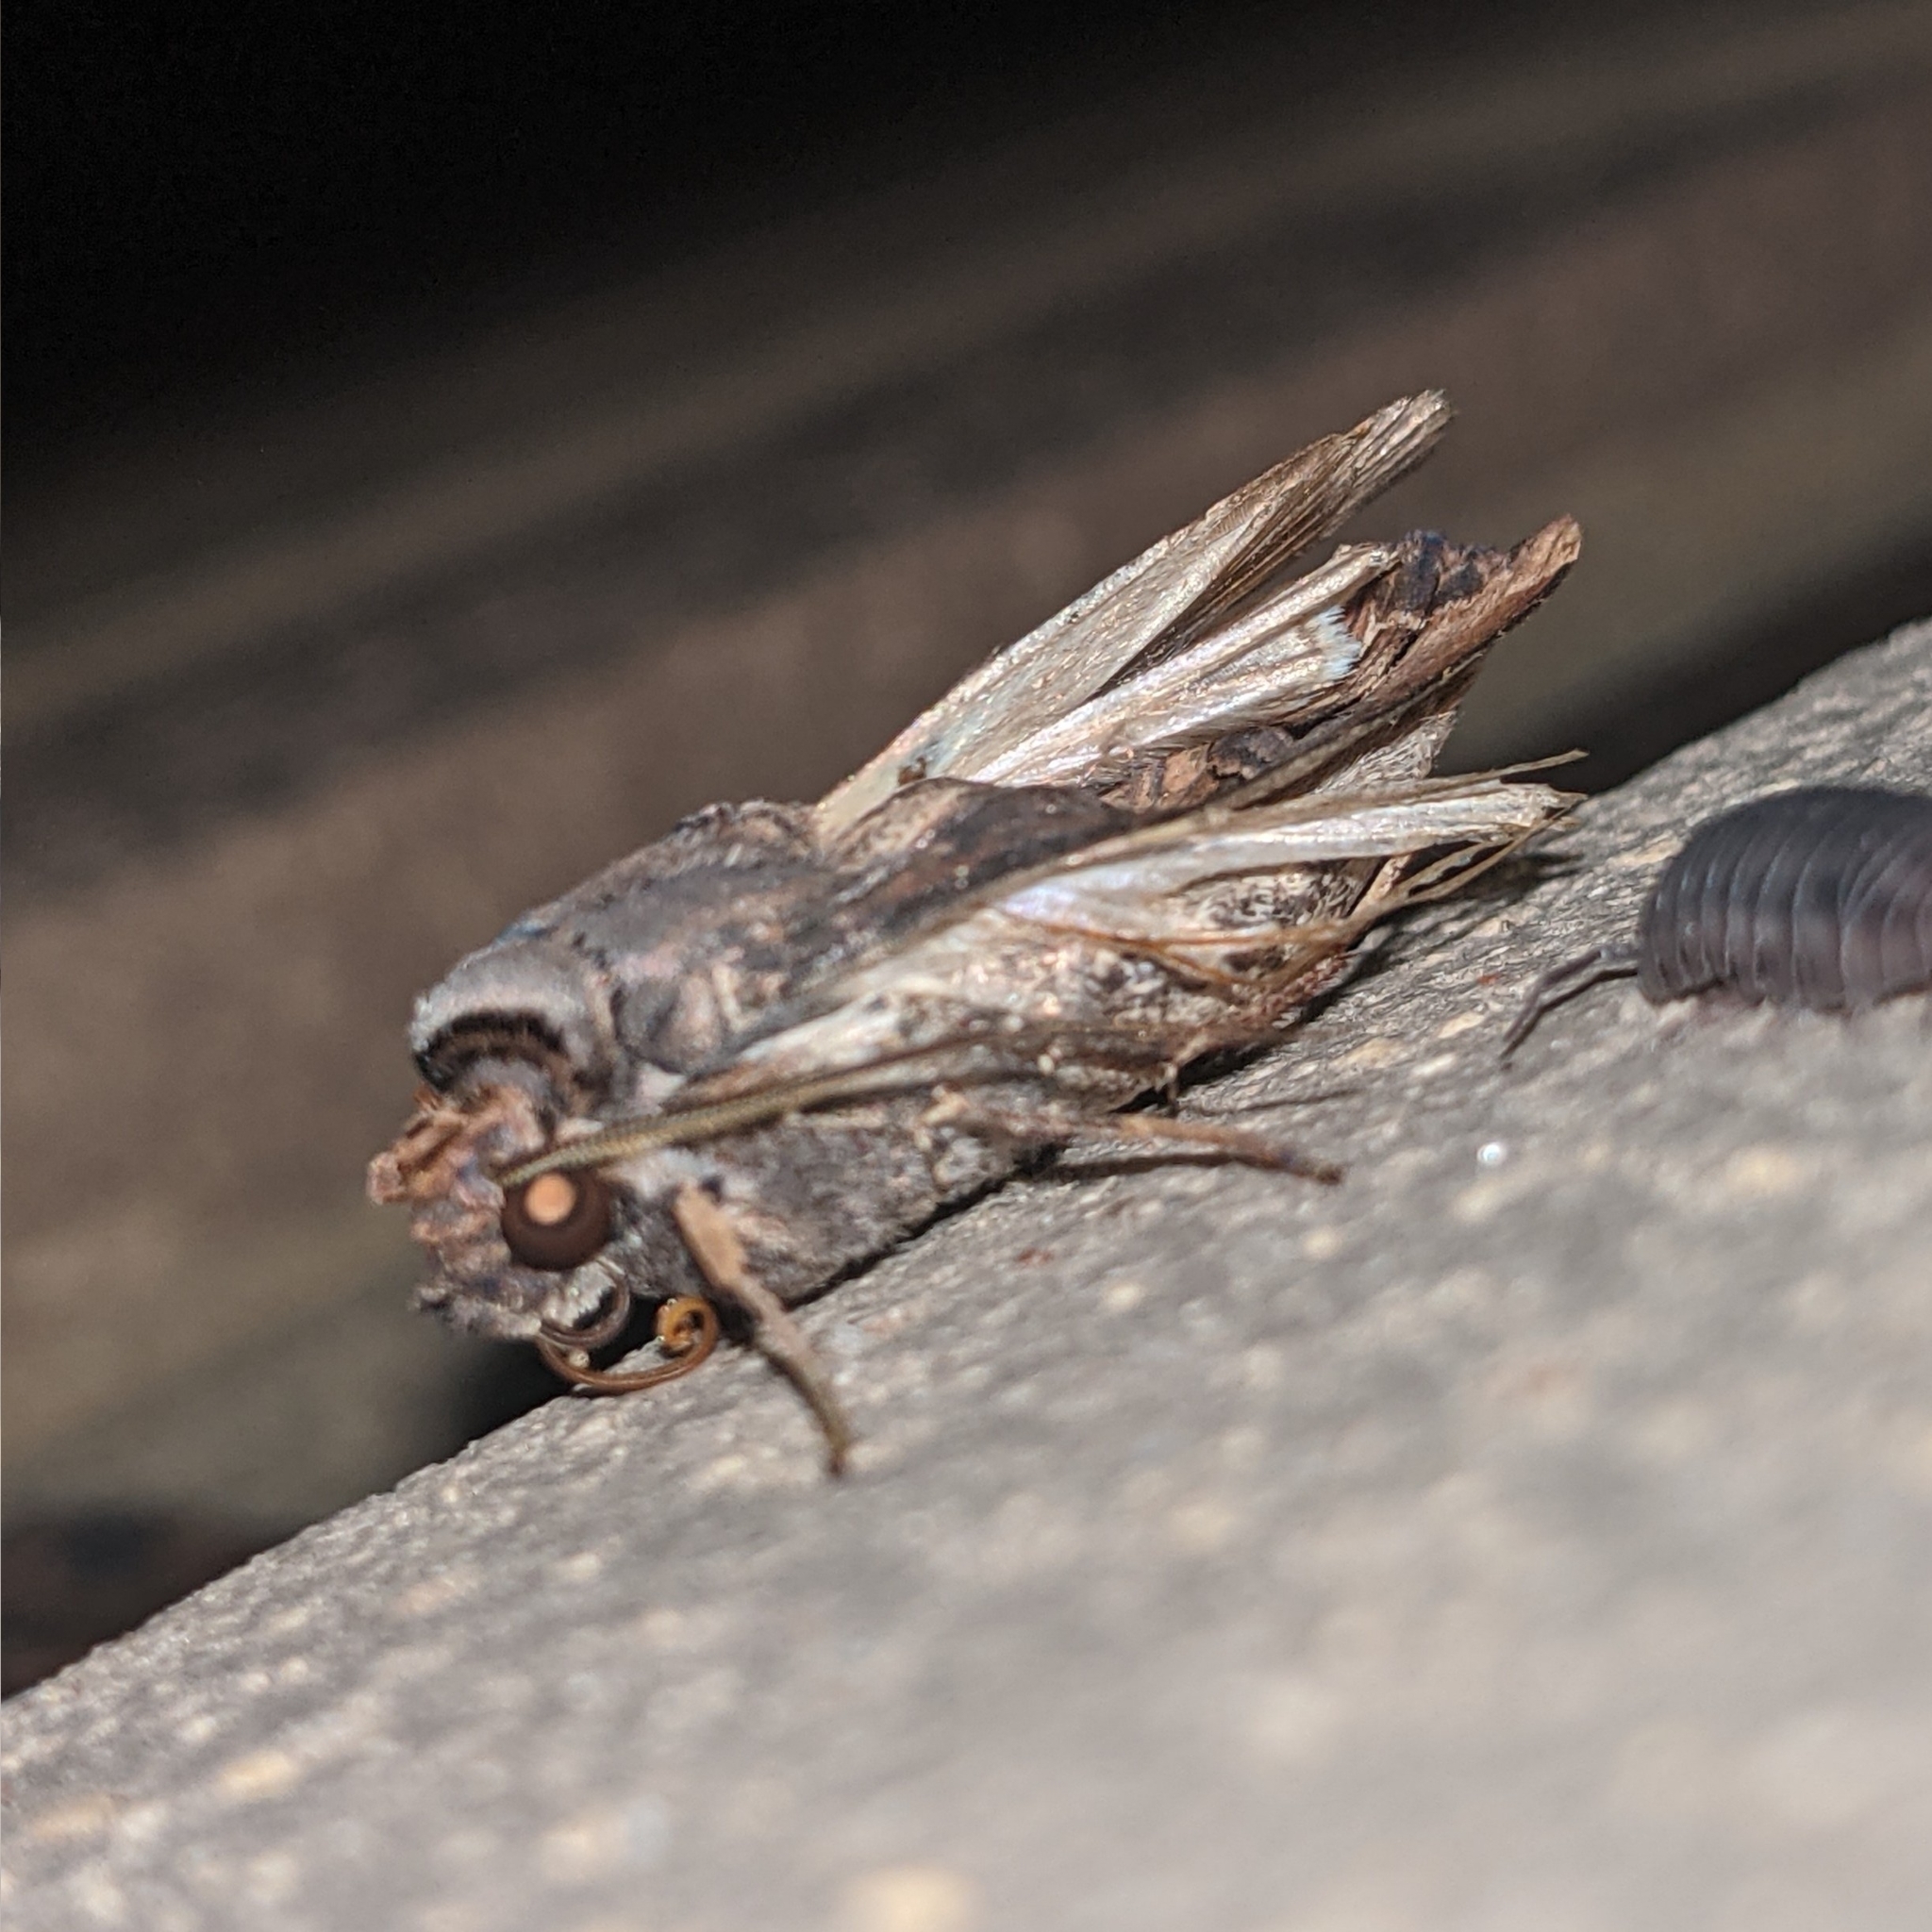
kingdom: Animalia
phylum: Arthropoda
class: Insecta
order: Lepidoptera
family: Noctuidae
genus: Agrotis
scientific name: Agrotis ipsilon
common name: Dark sword-grass
